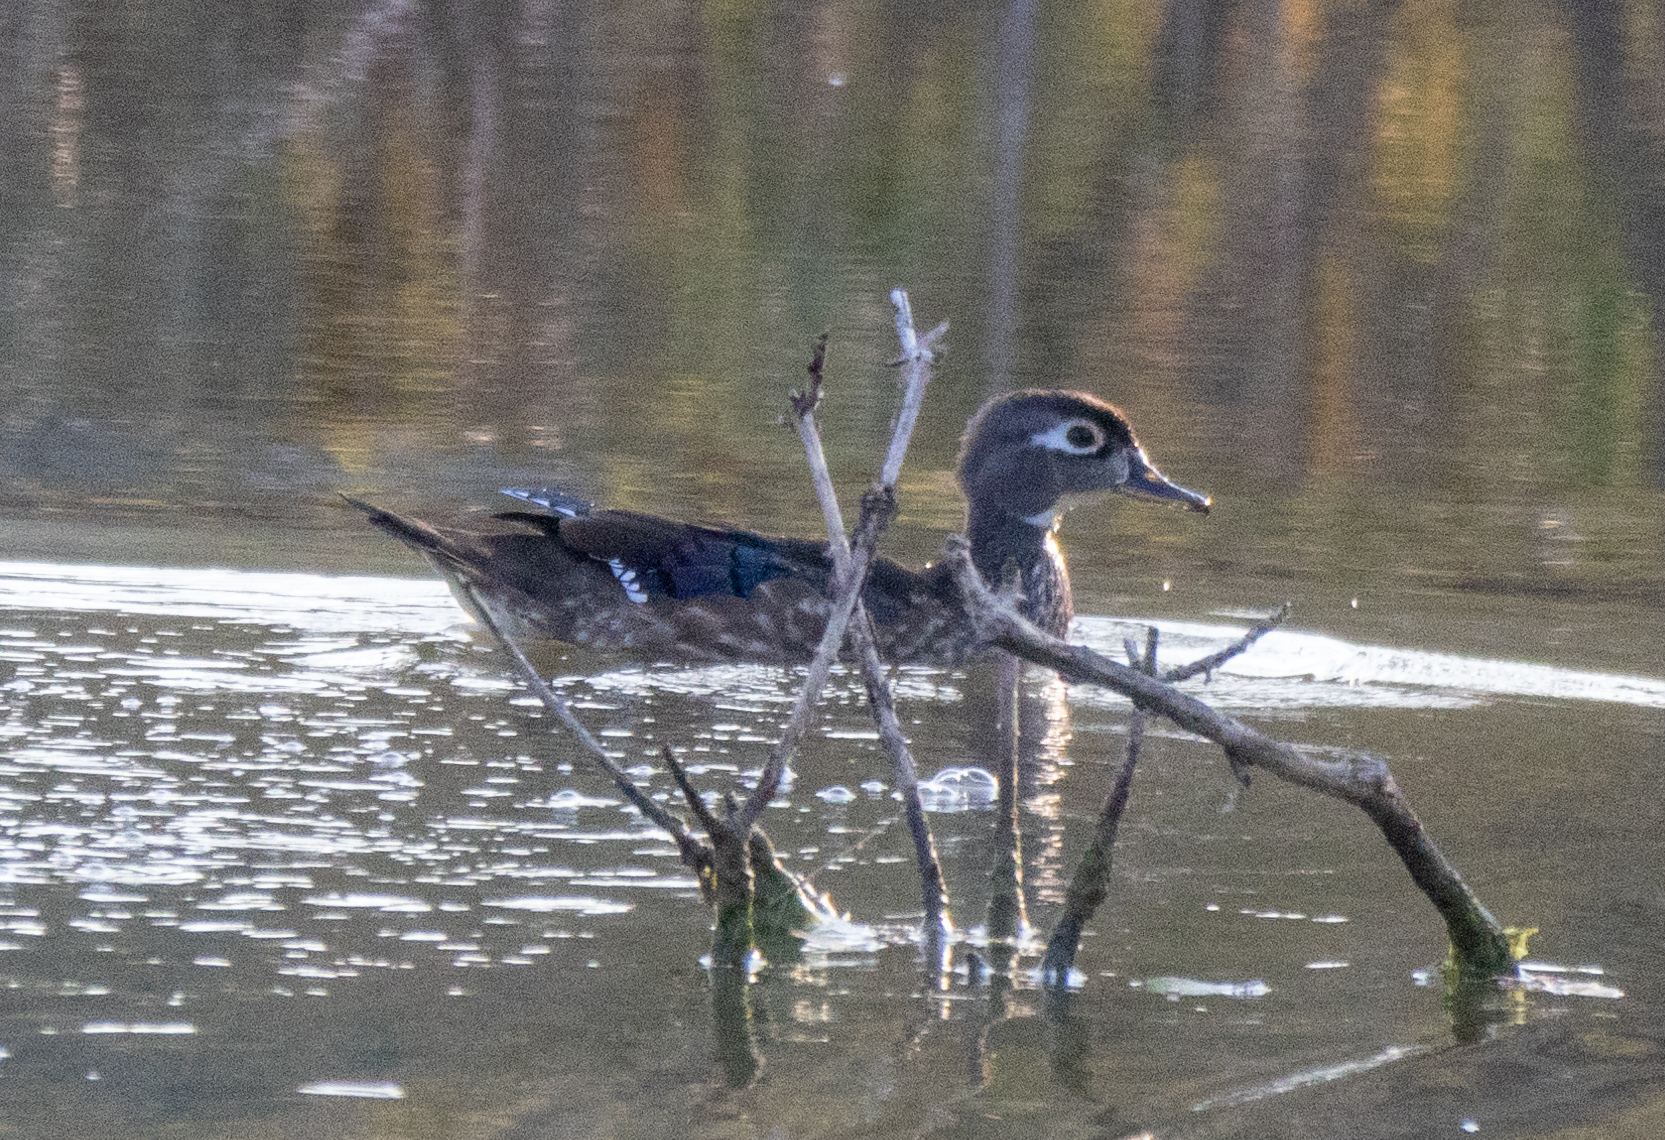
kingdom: Animalia
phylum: Chordata
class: Aves
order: Anseriformes
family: Anatidae
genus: Aix
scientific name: Aix sponsa
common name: Wood duck
